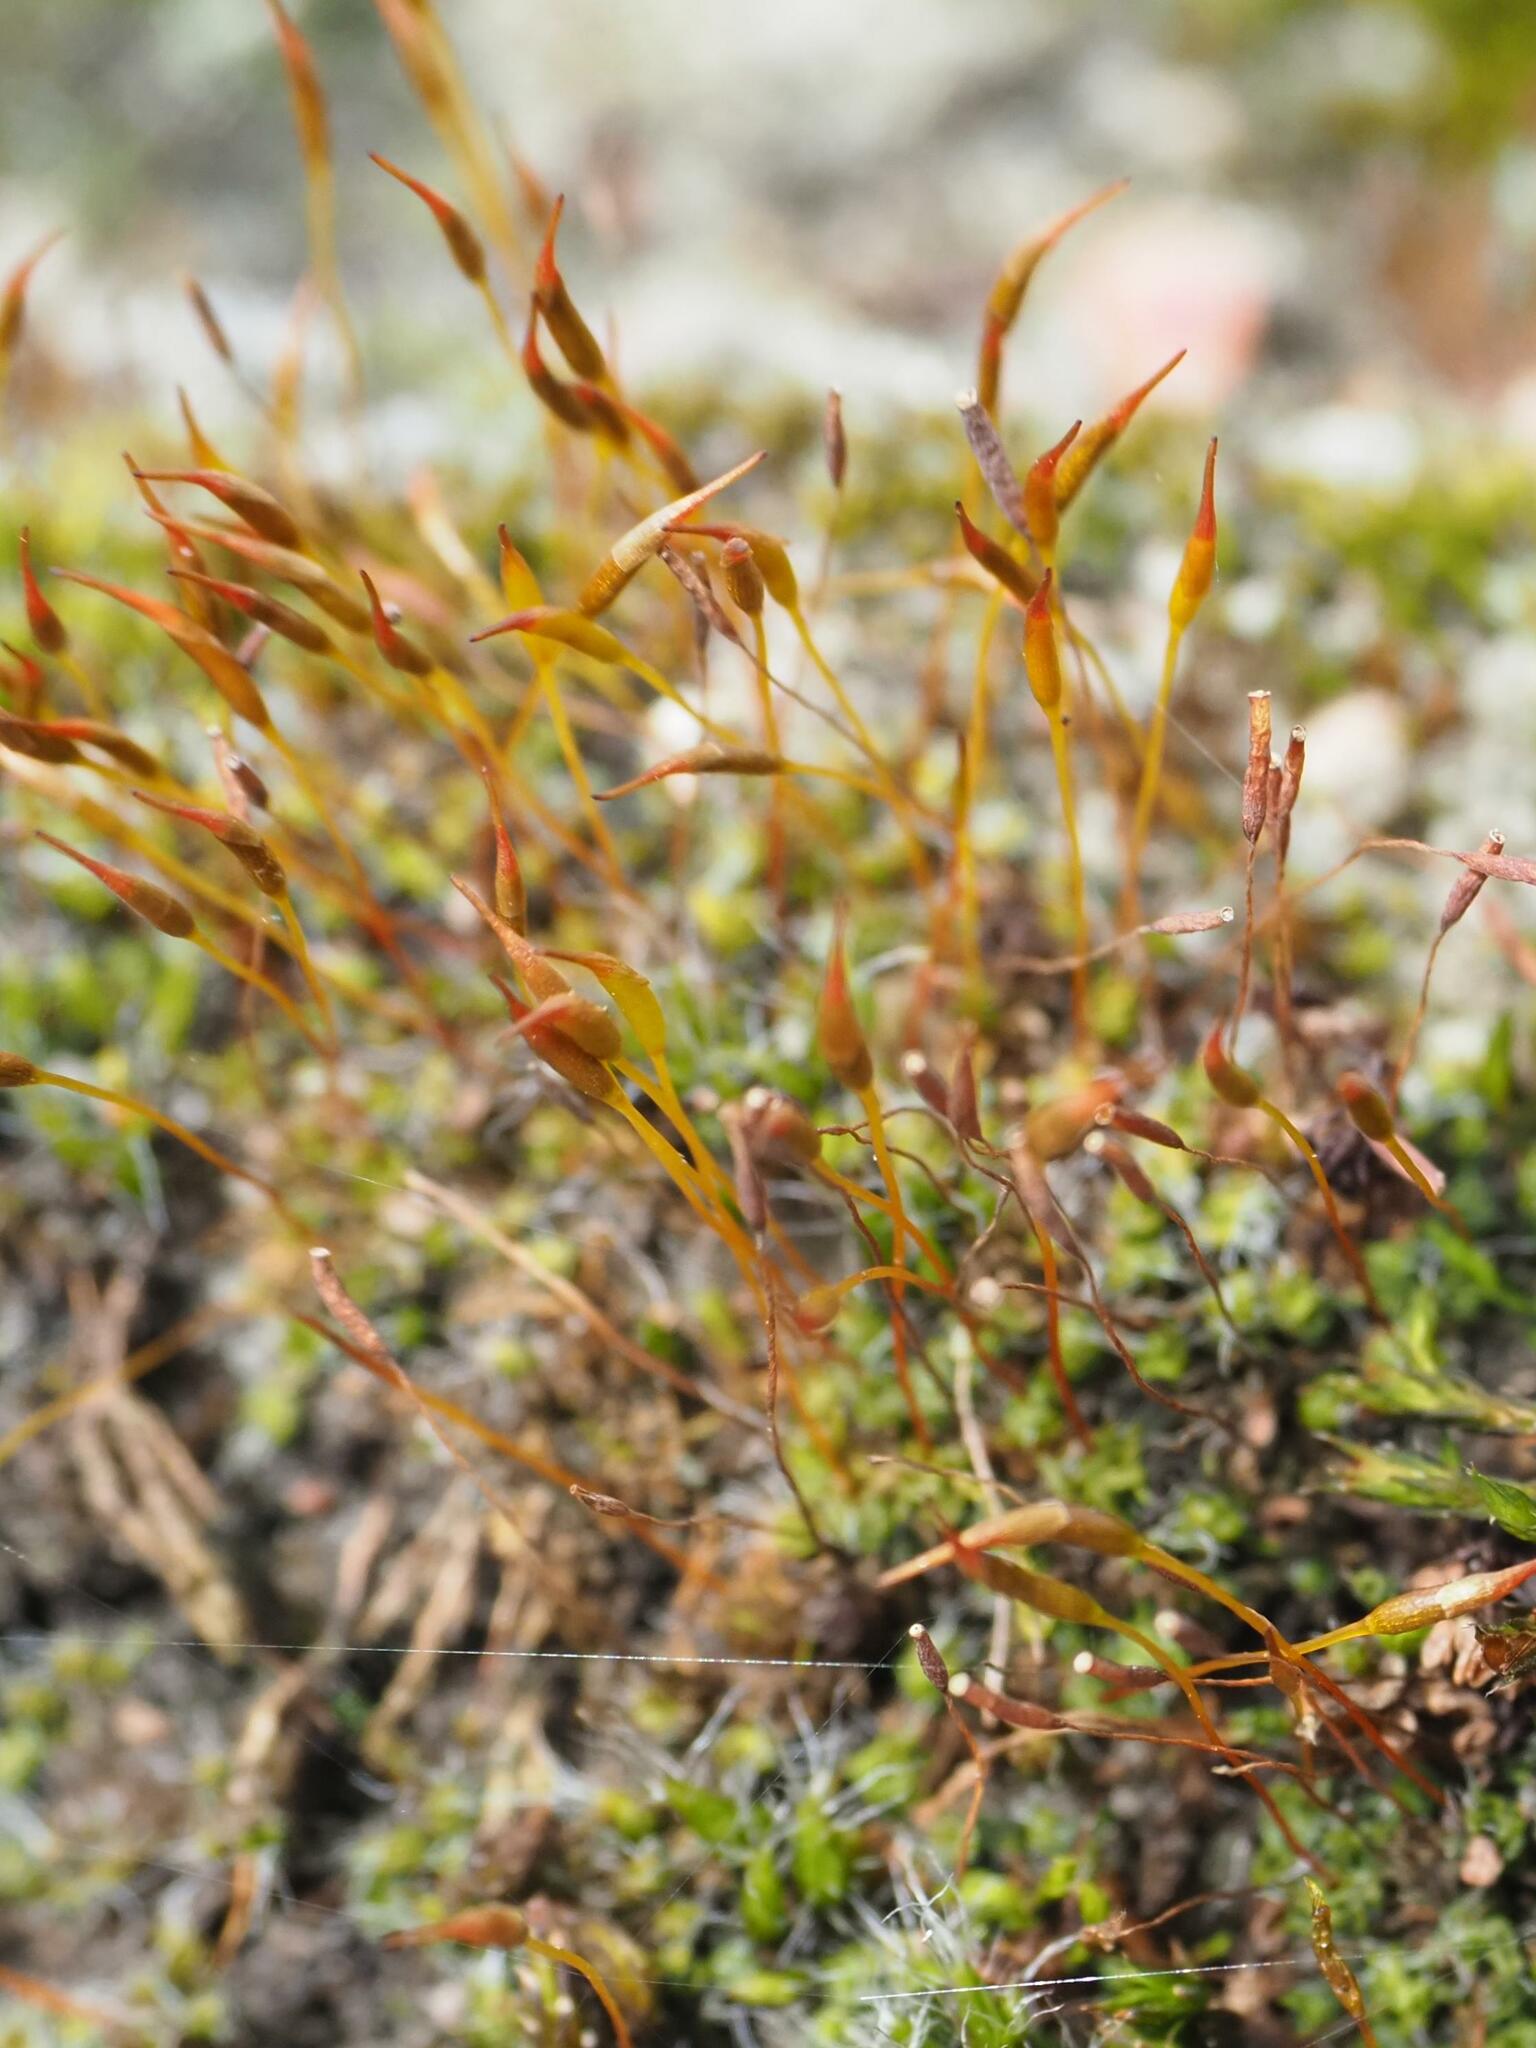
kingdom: Plantae
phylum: Bryophyta
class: Bryopsida
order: Pottiales
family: Pottiaceae
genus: Tortula
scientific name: Tortula muralis
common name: Wall screw-moss
